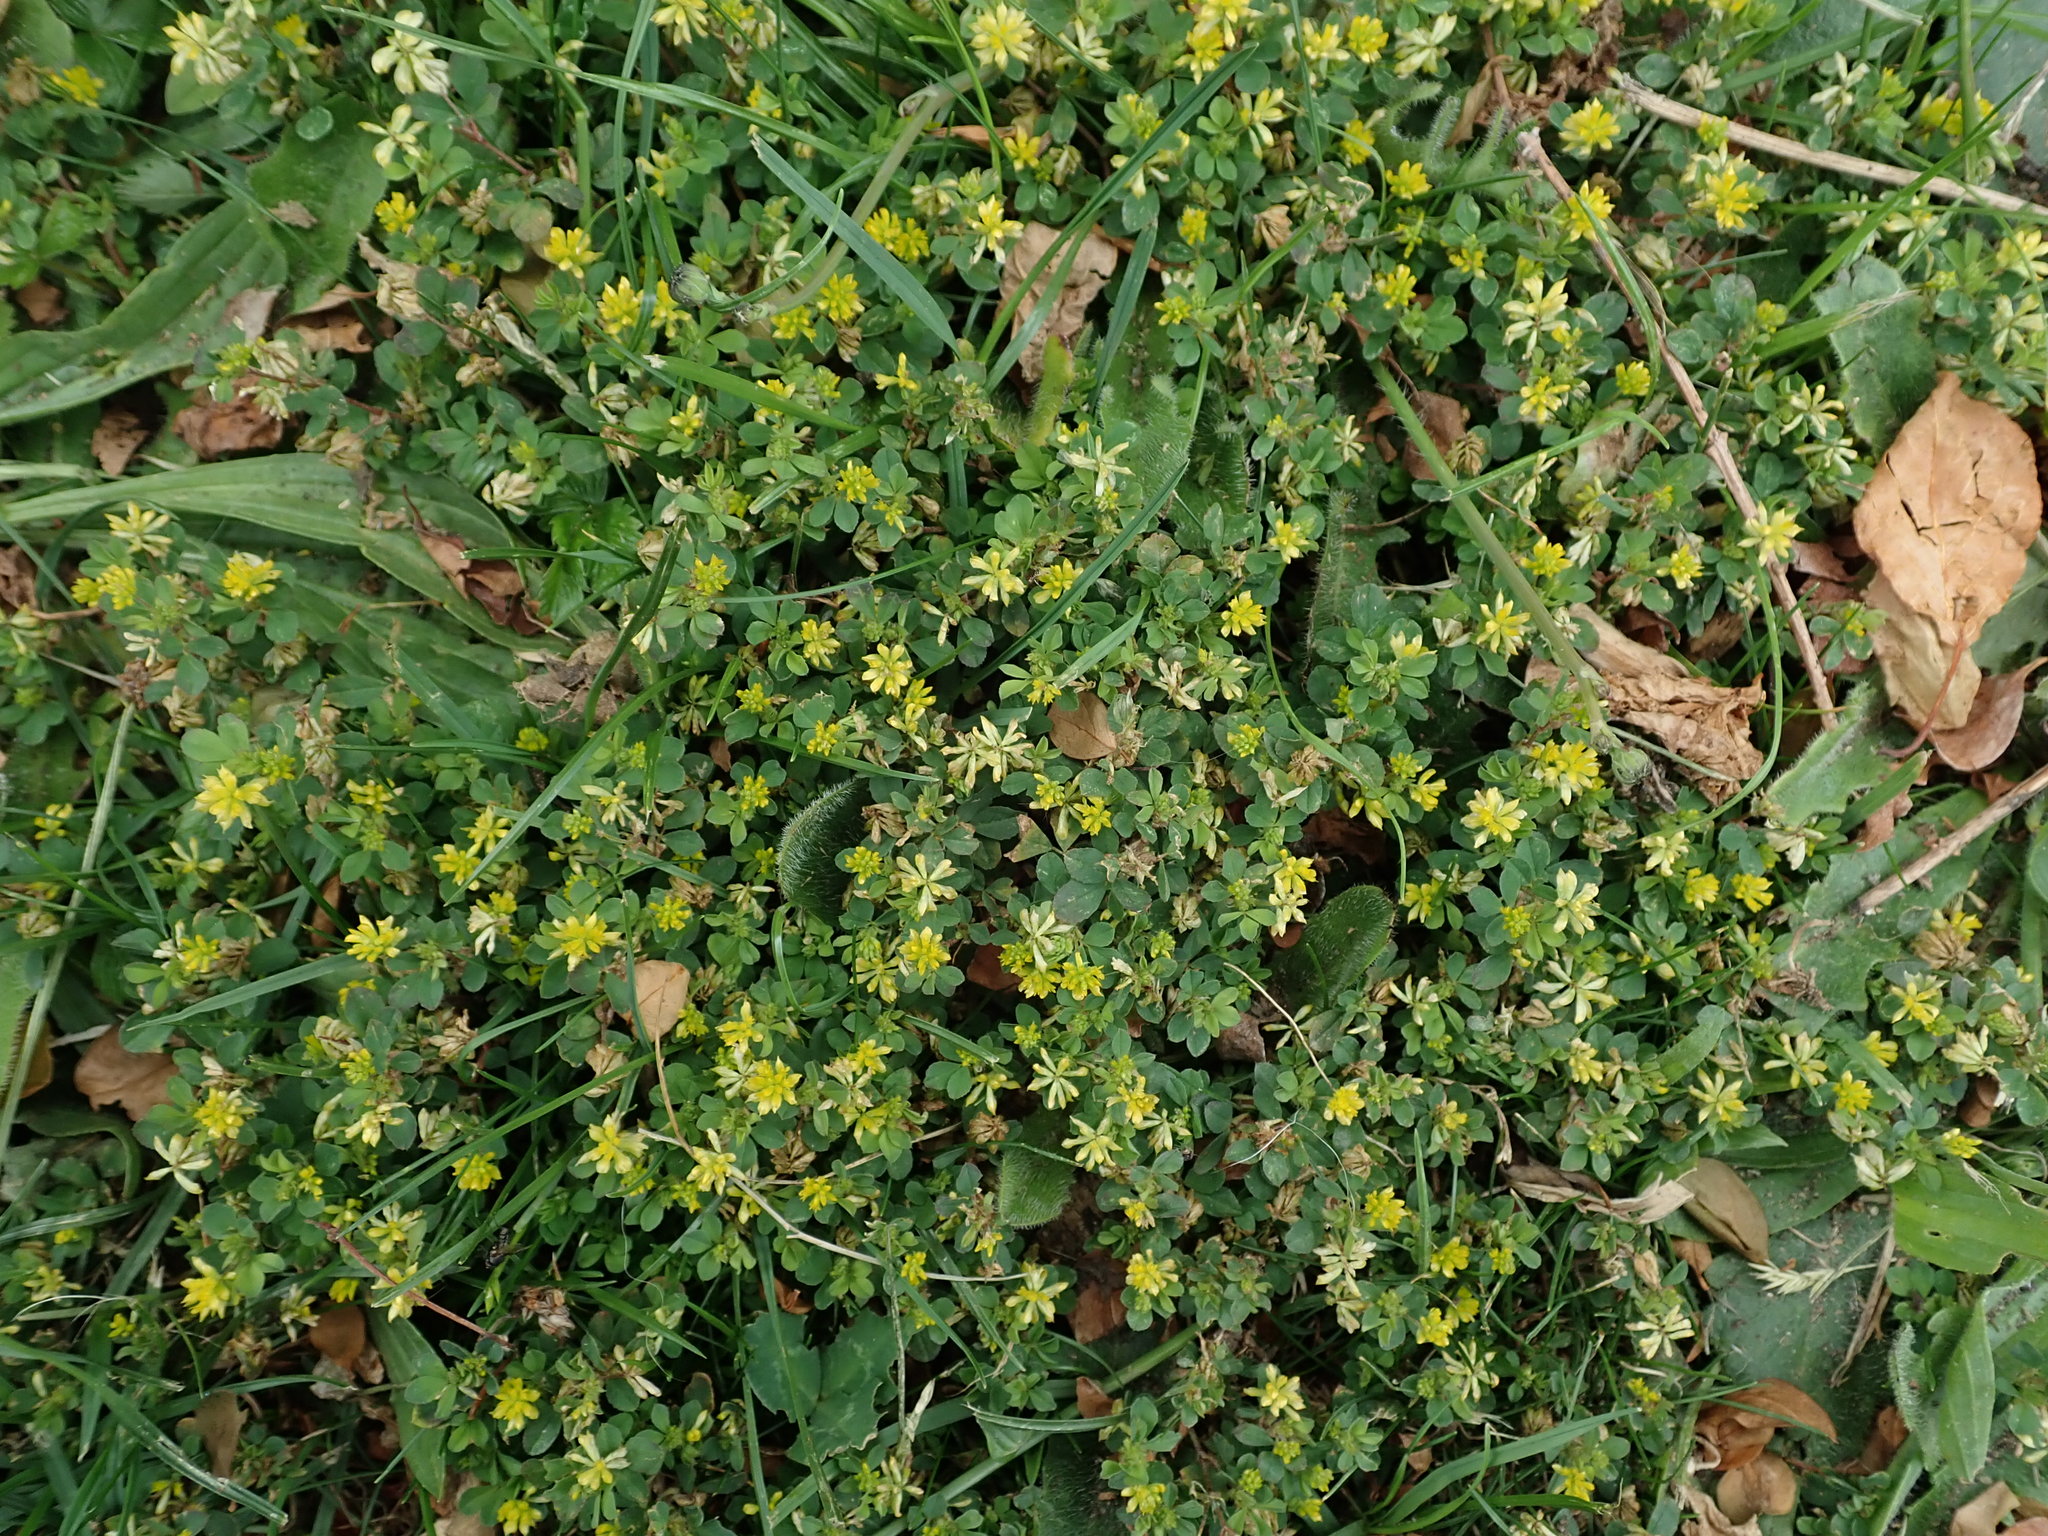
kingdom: Plantae
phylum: Tracheophyta
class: Magnoliopsida
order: Fabales
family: Fabaceae
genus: Trifolium
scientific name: Trifolium dubium
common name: Suckling clover
